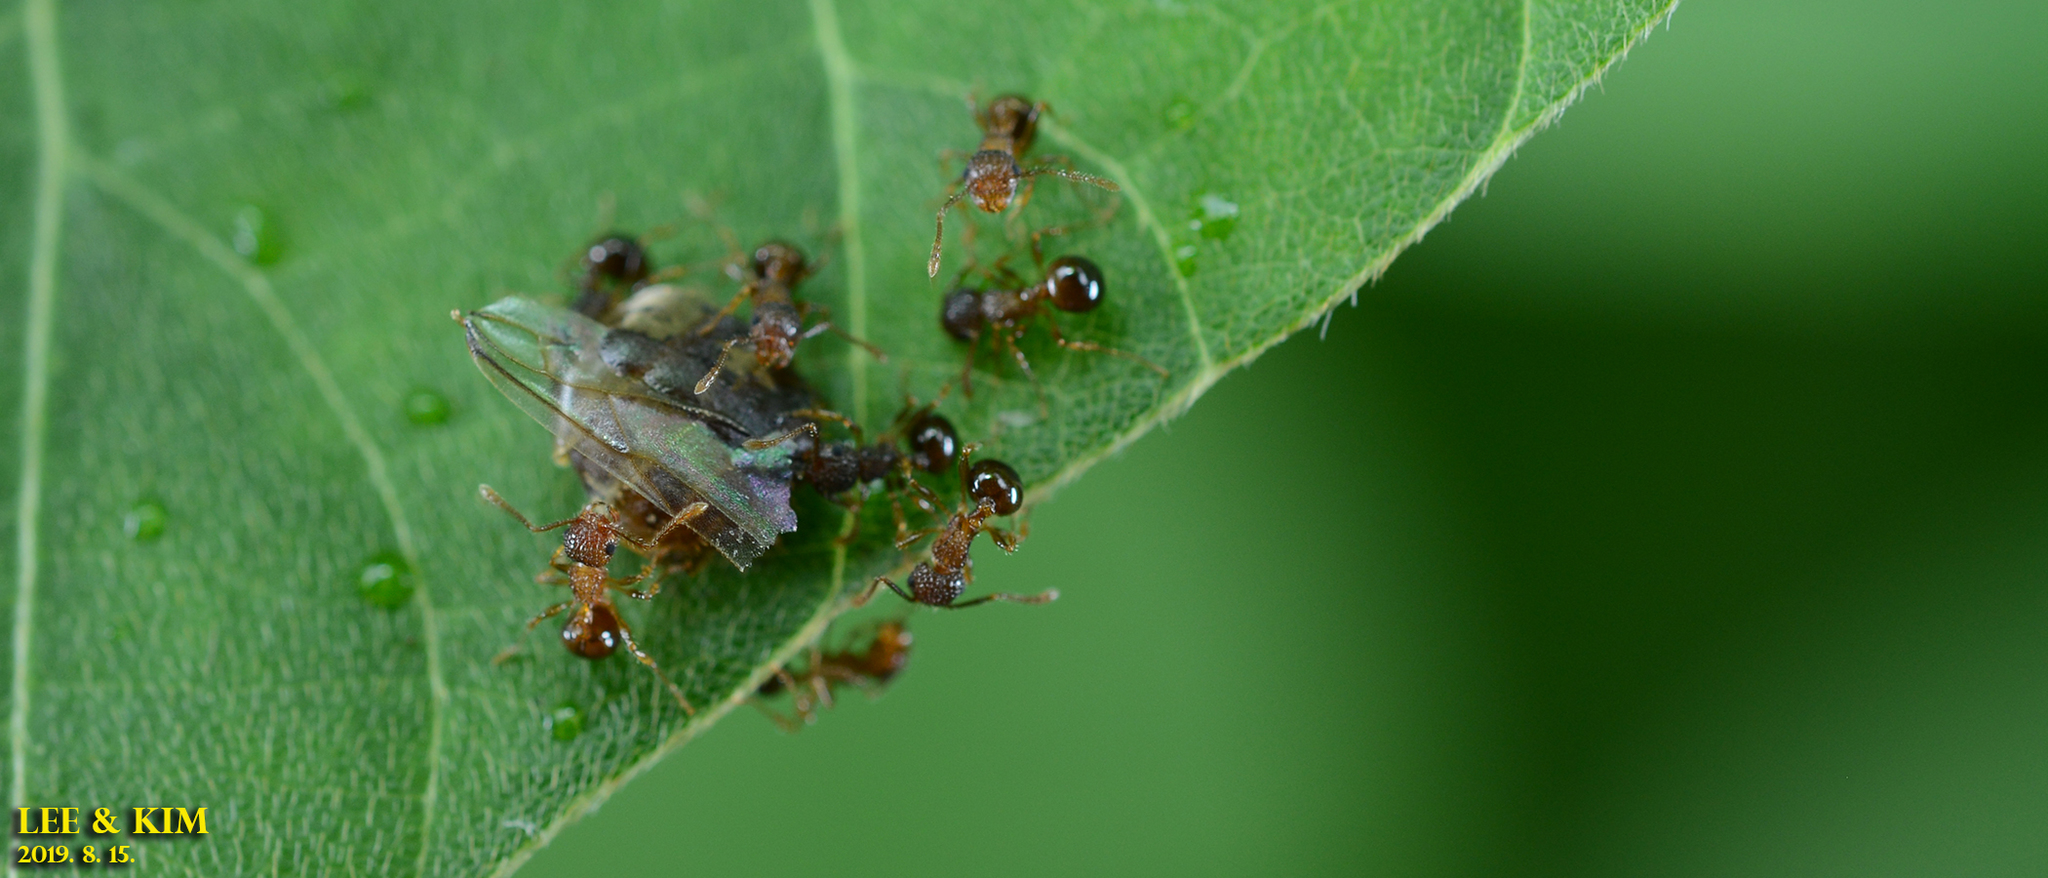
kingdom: Animalia
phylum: Arthropoda
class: Insecta
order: Hymenoptera
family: Formicidae
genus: Pristomyrmex
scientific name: Pristomyrmex punctatus
